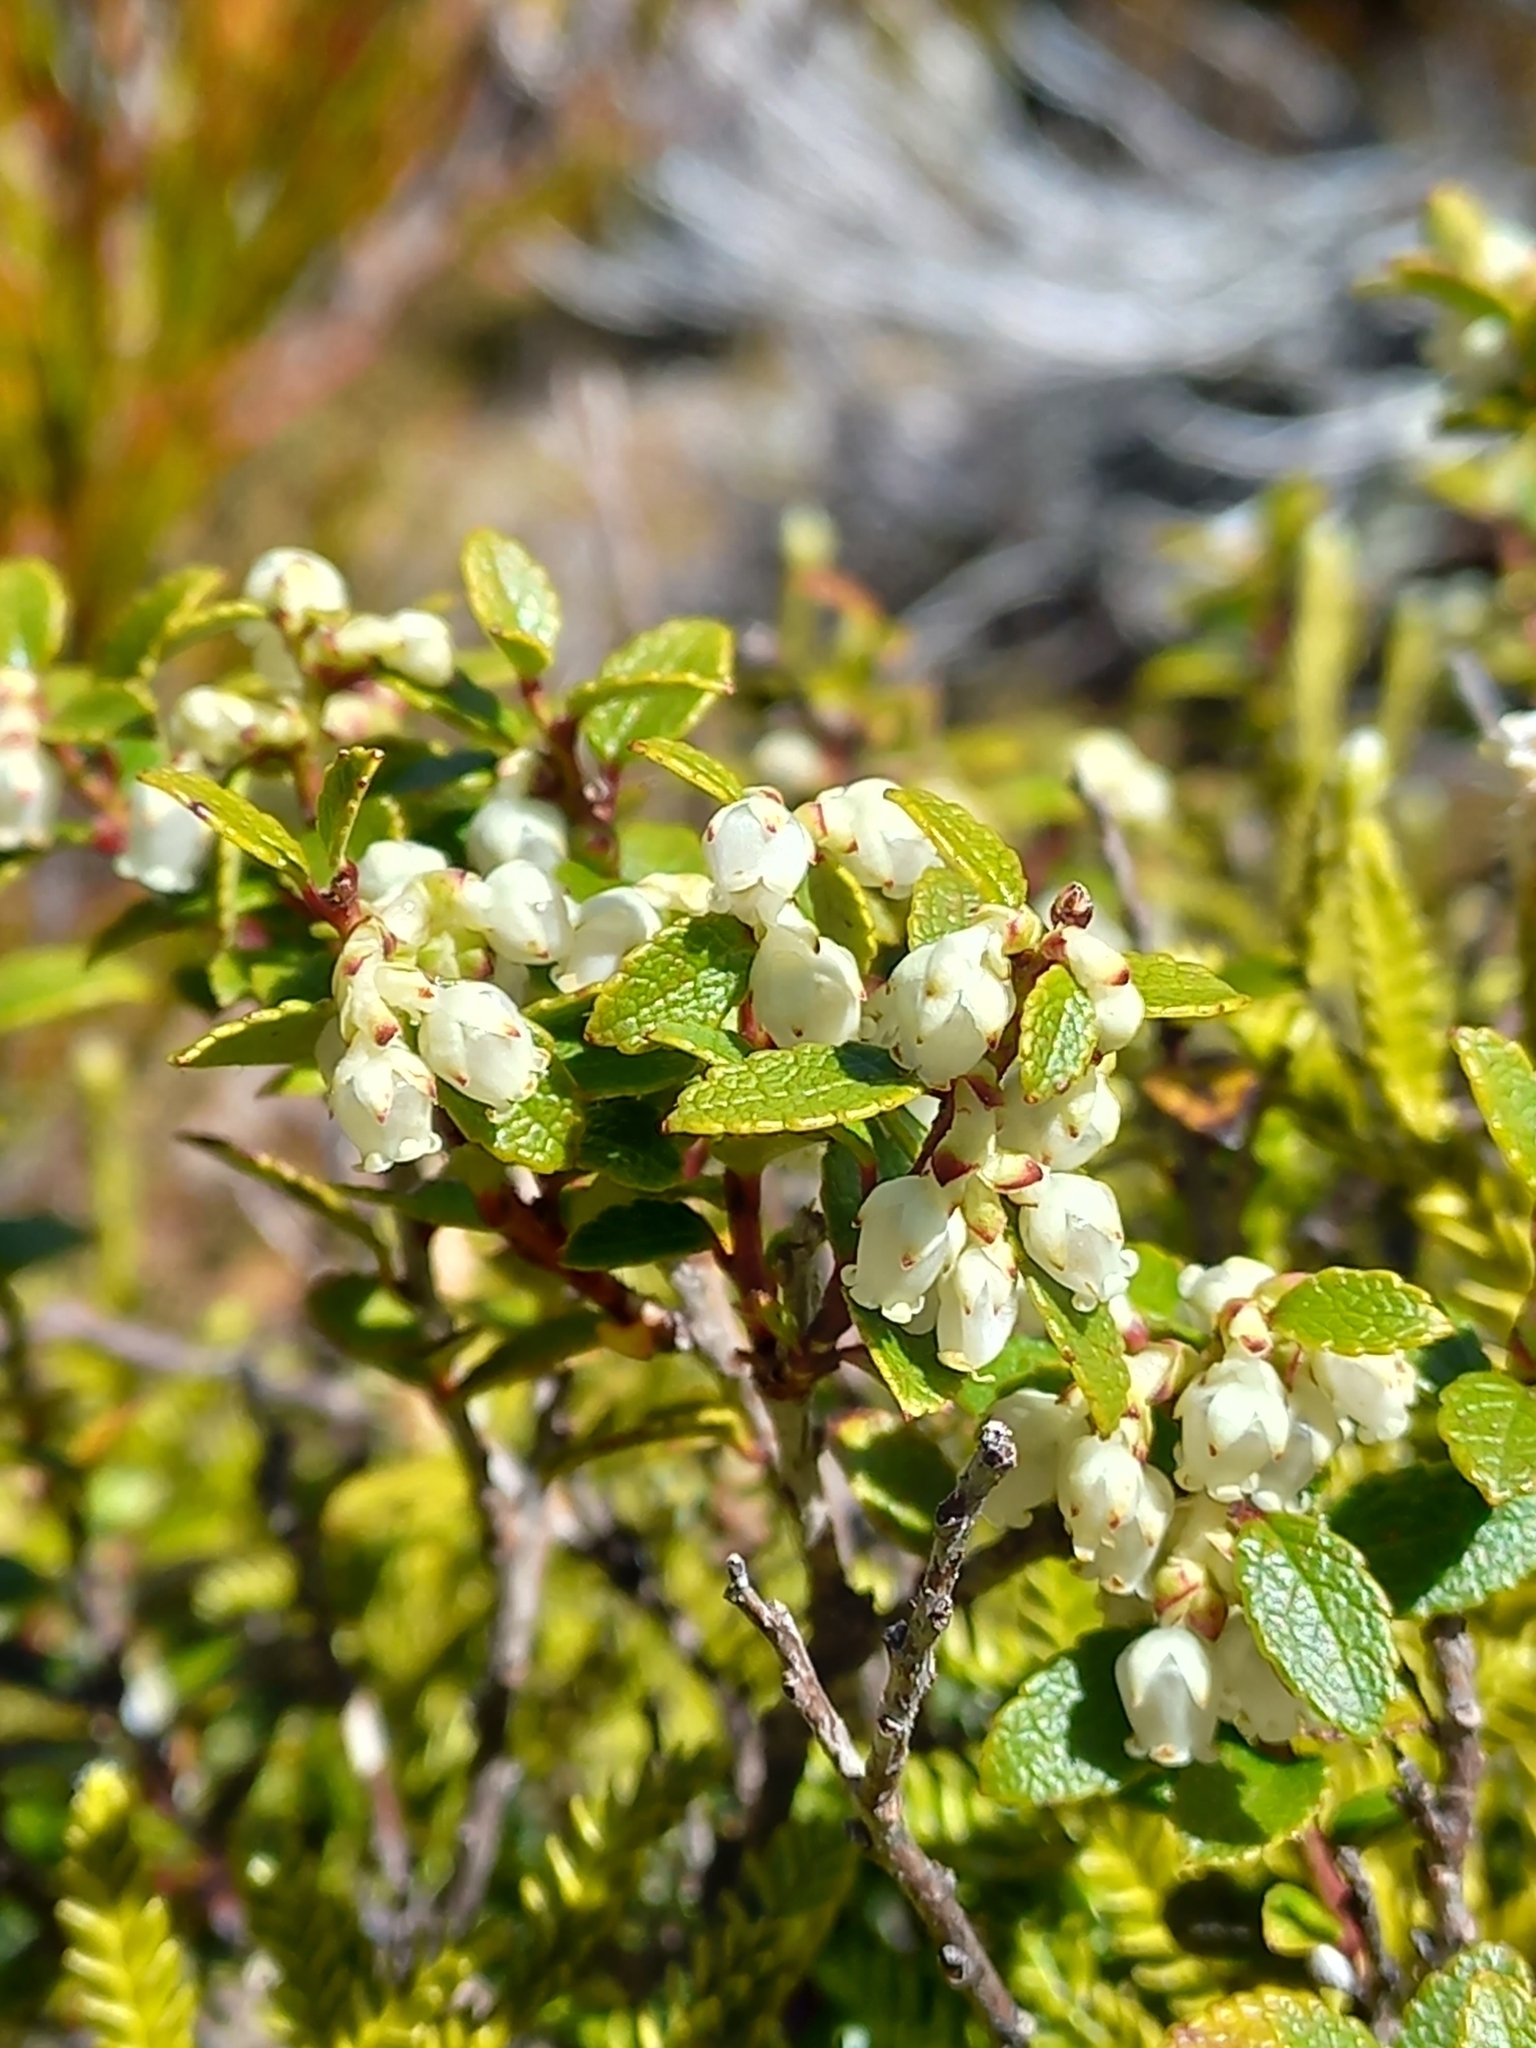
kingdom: Plantae
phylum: Tracheophyta
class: Magnoliopsida
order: Ericales
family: Ericaceae
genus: Gaultheria
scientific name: Gaultheria crassa
